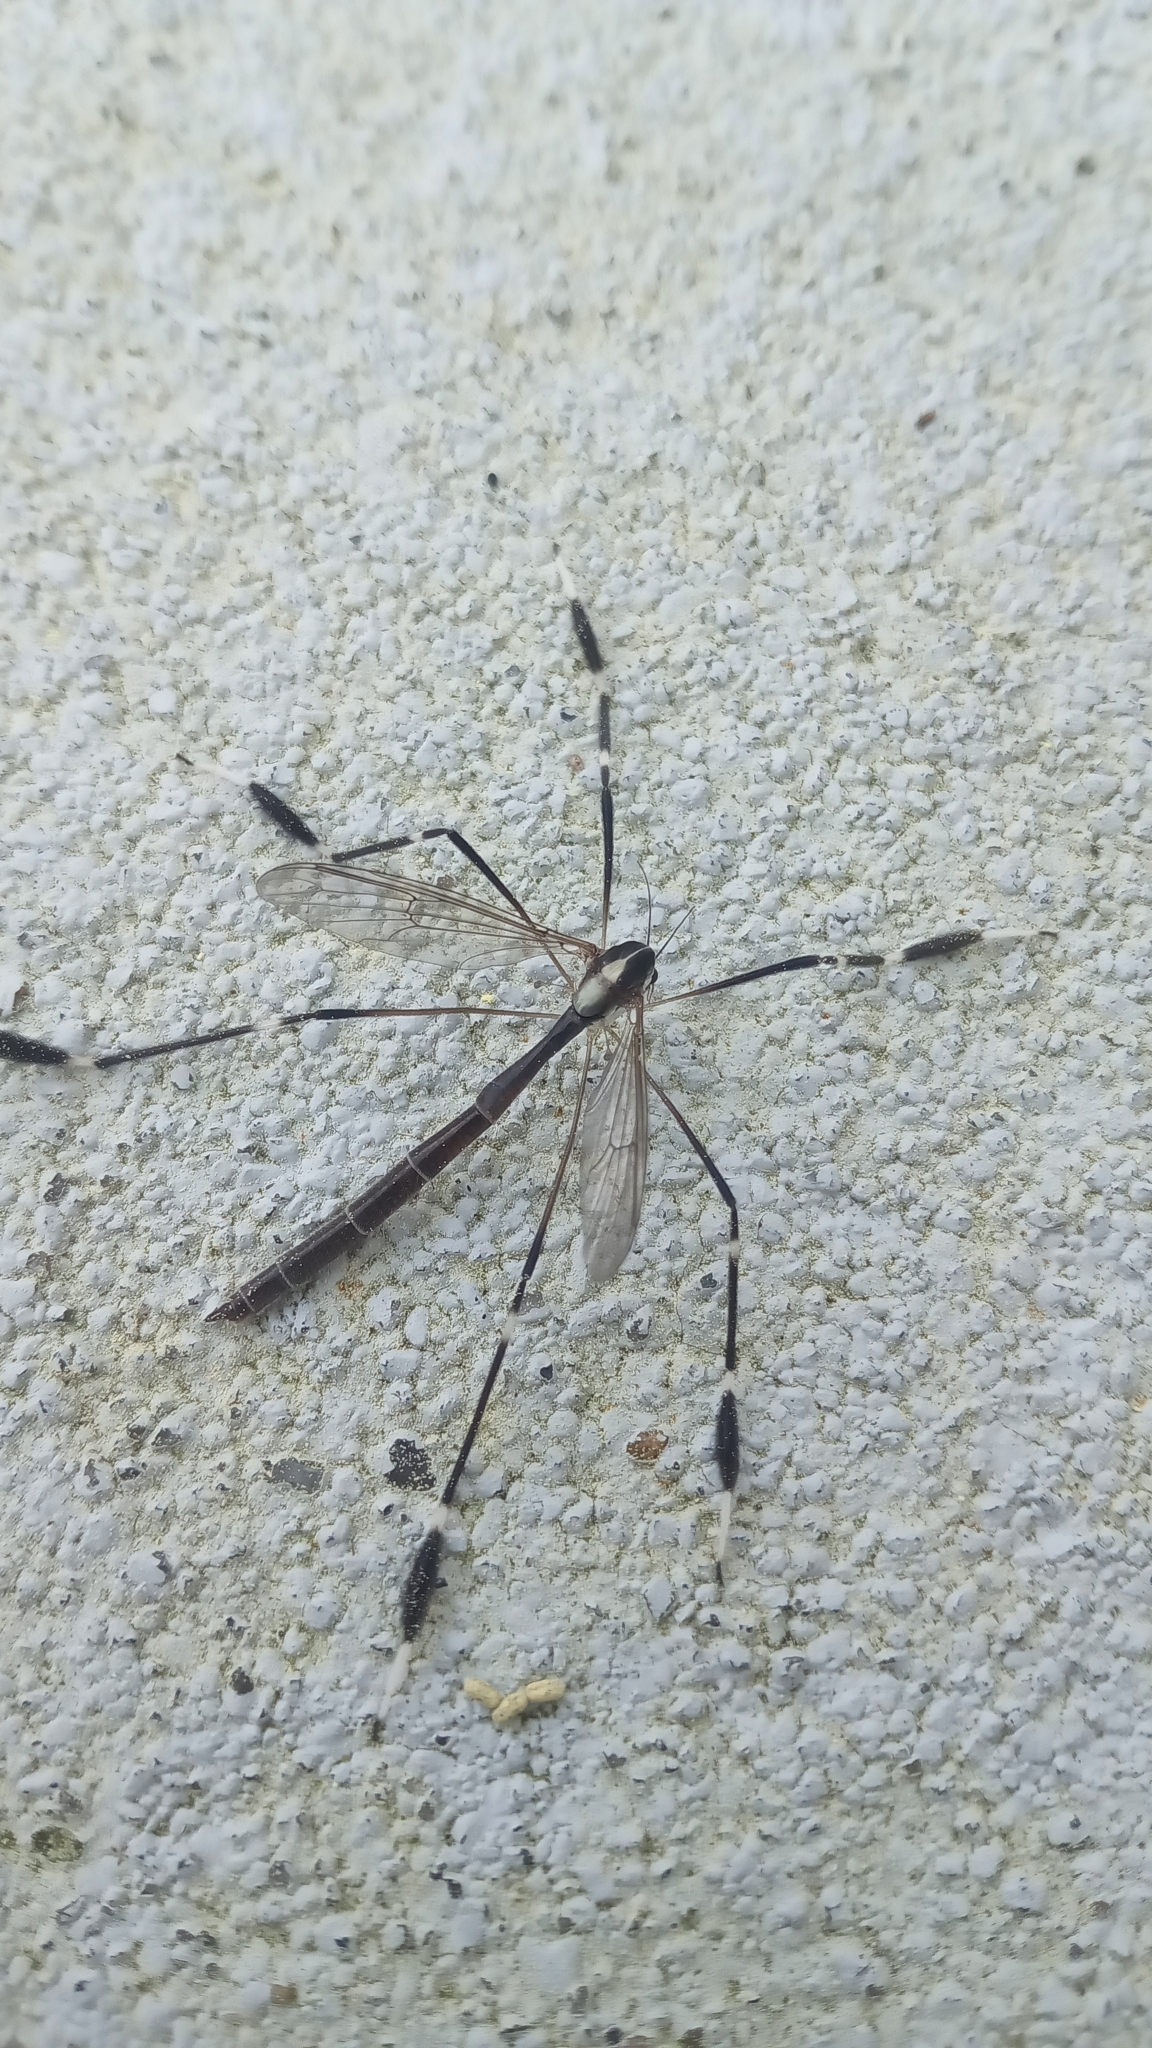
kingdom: Animalia
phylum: Arthropoda
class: Insecta
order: Diptera
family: Ptychopteridae
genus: Bittacomorpha
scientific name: Bittacomorpha clavipes
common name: Eastern phantom crane fly
